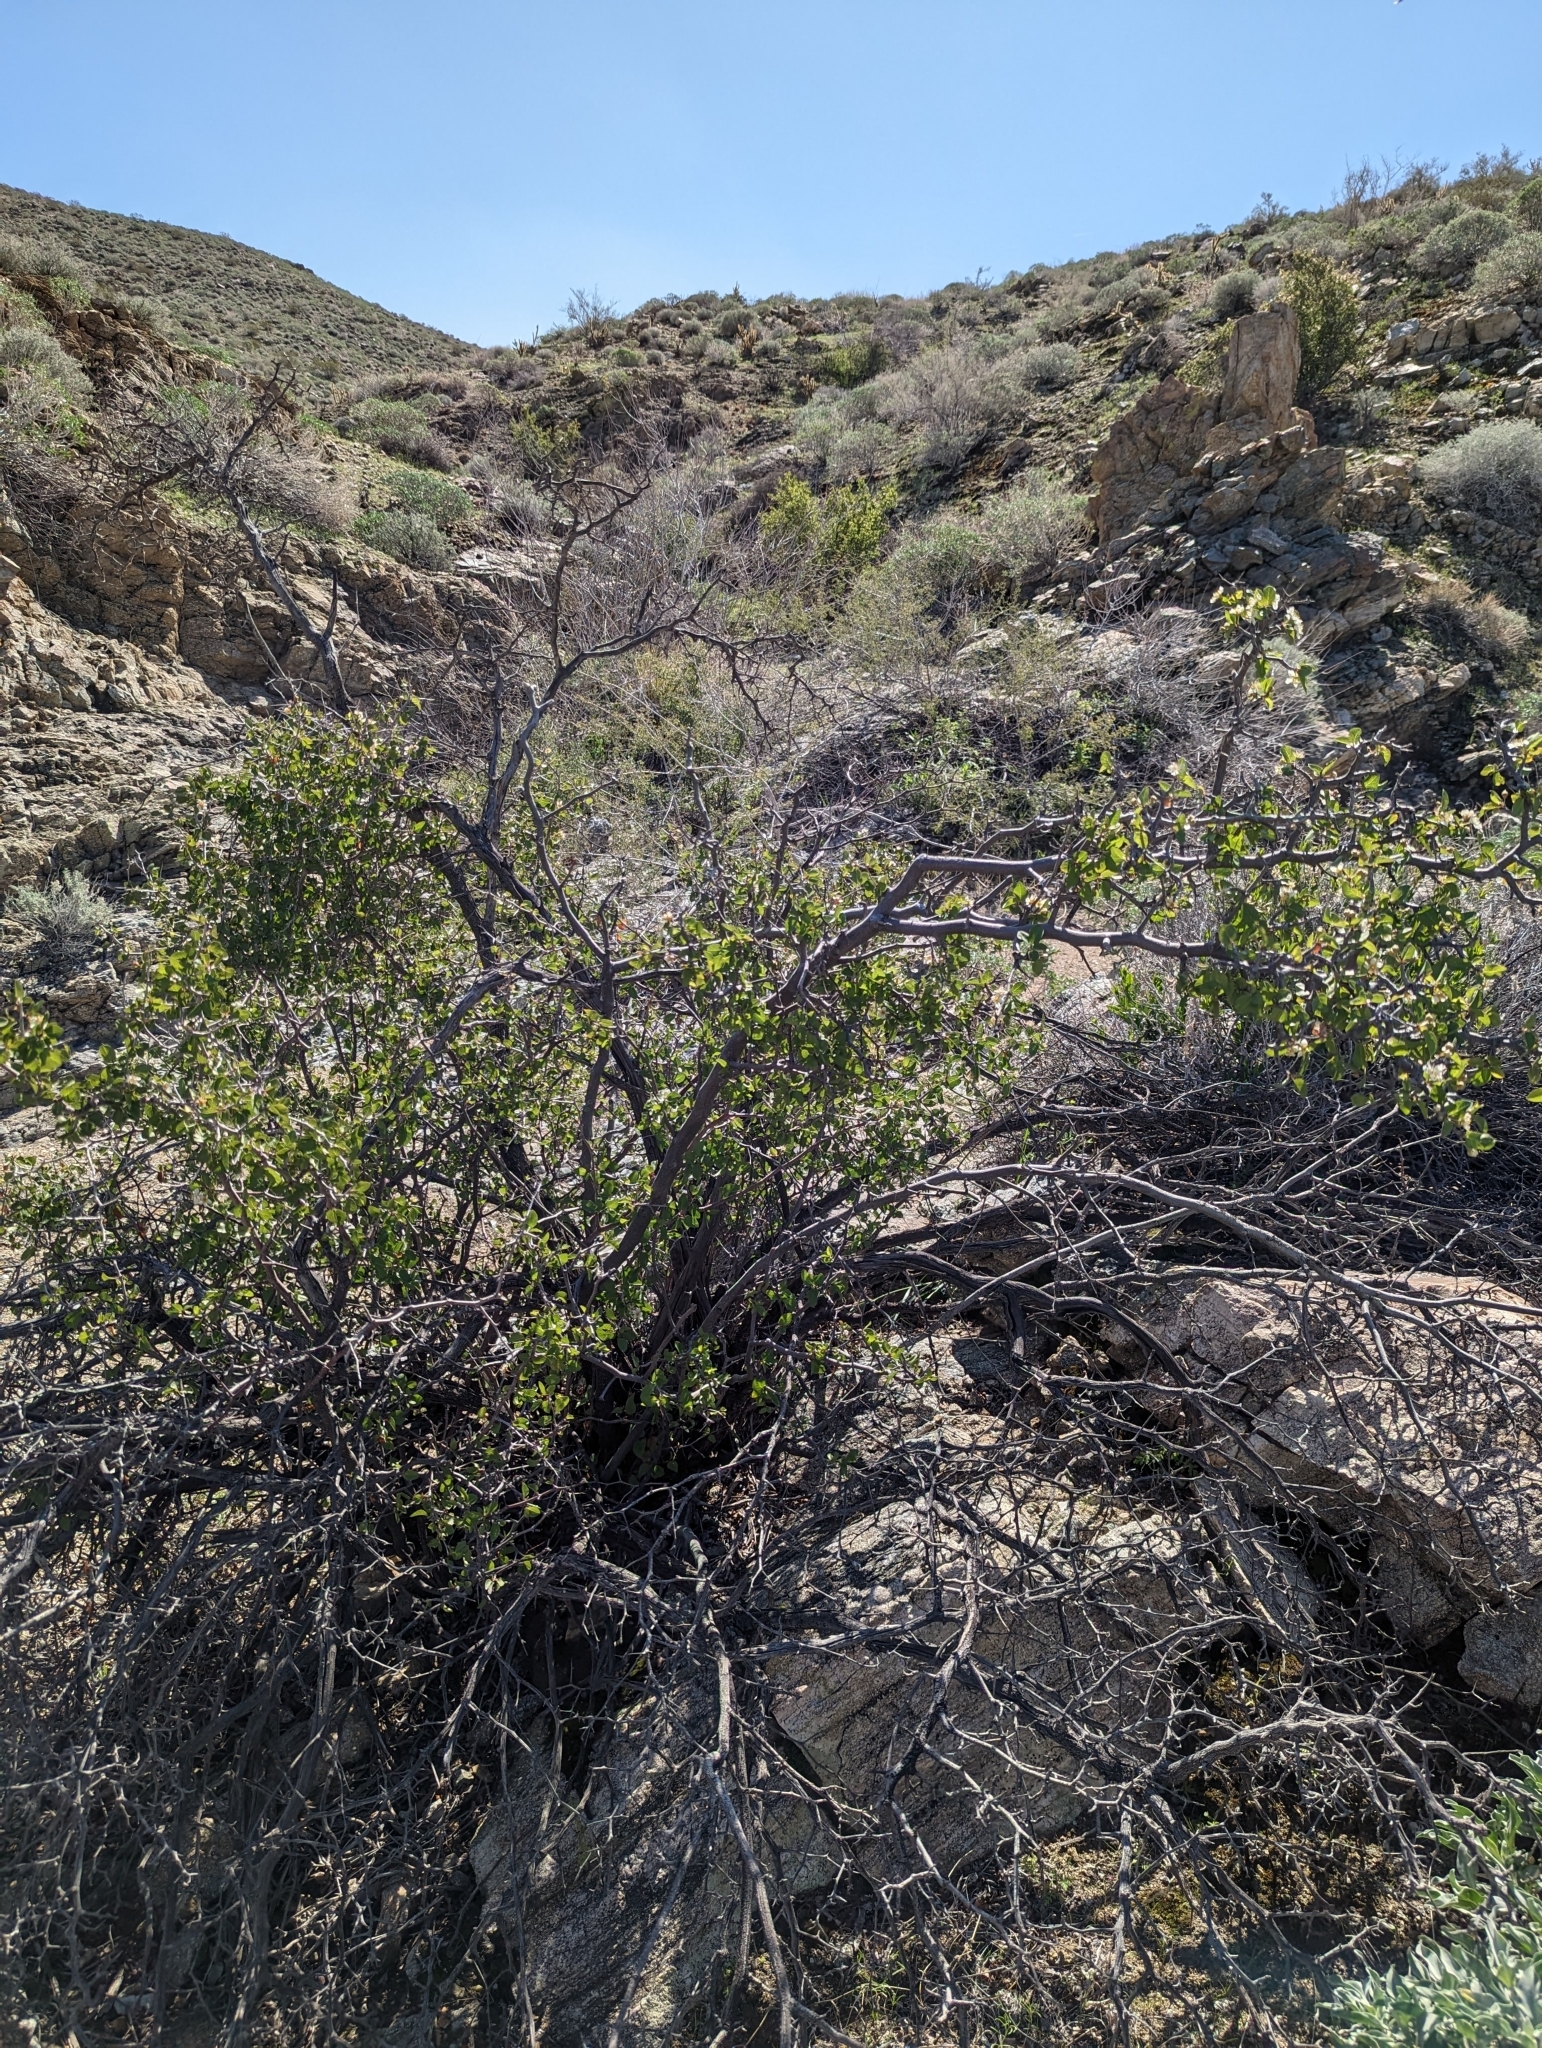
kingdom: Plantae
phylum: Tracheophyta
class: Magnoliopsida
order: Rosales
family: Rosaceae
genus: Prunus
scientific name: Prunus fremontii
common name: Desert apricot
